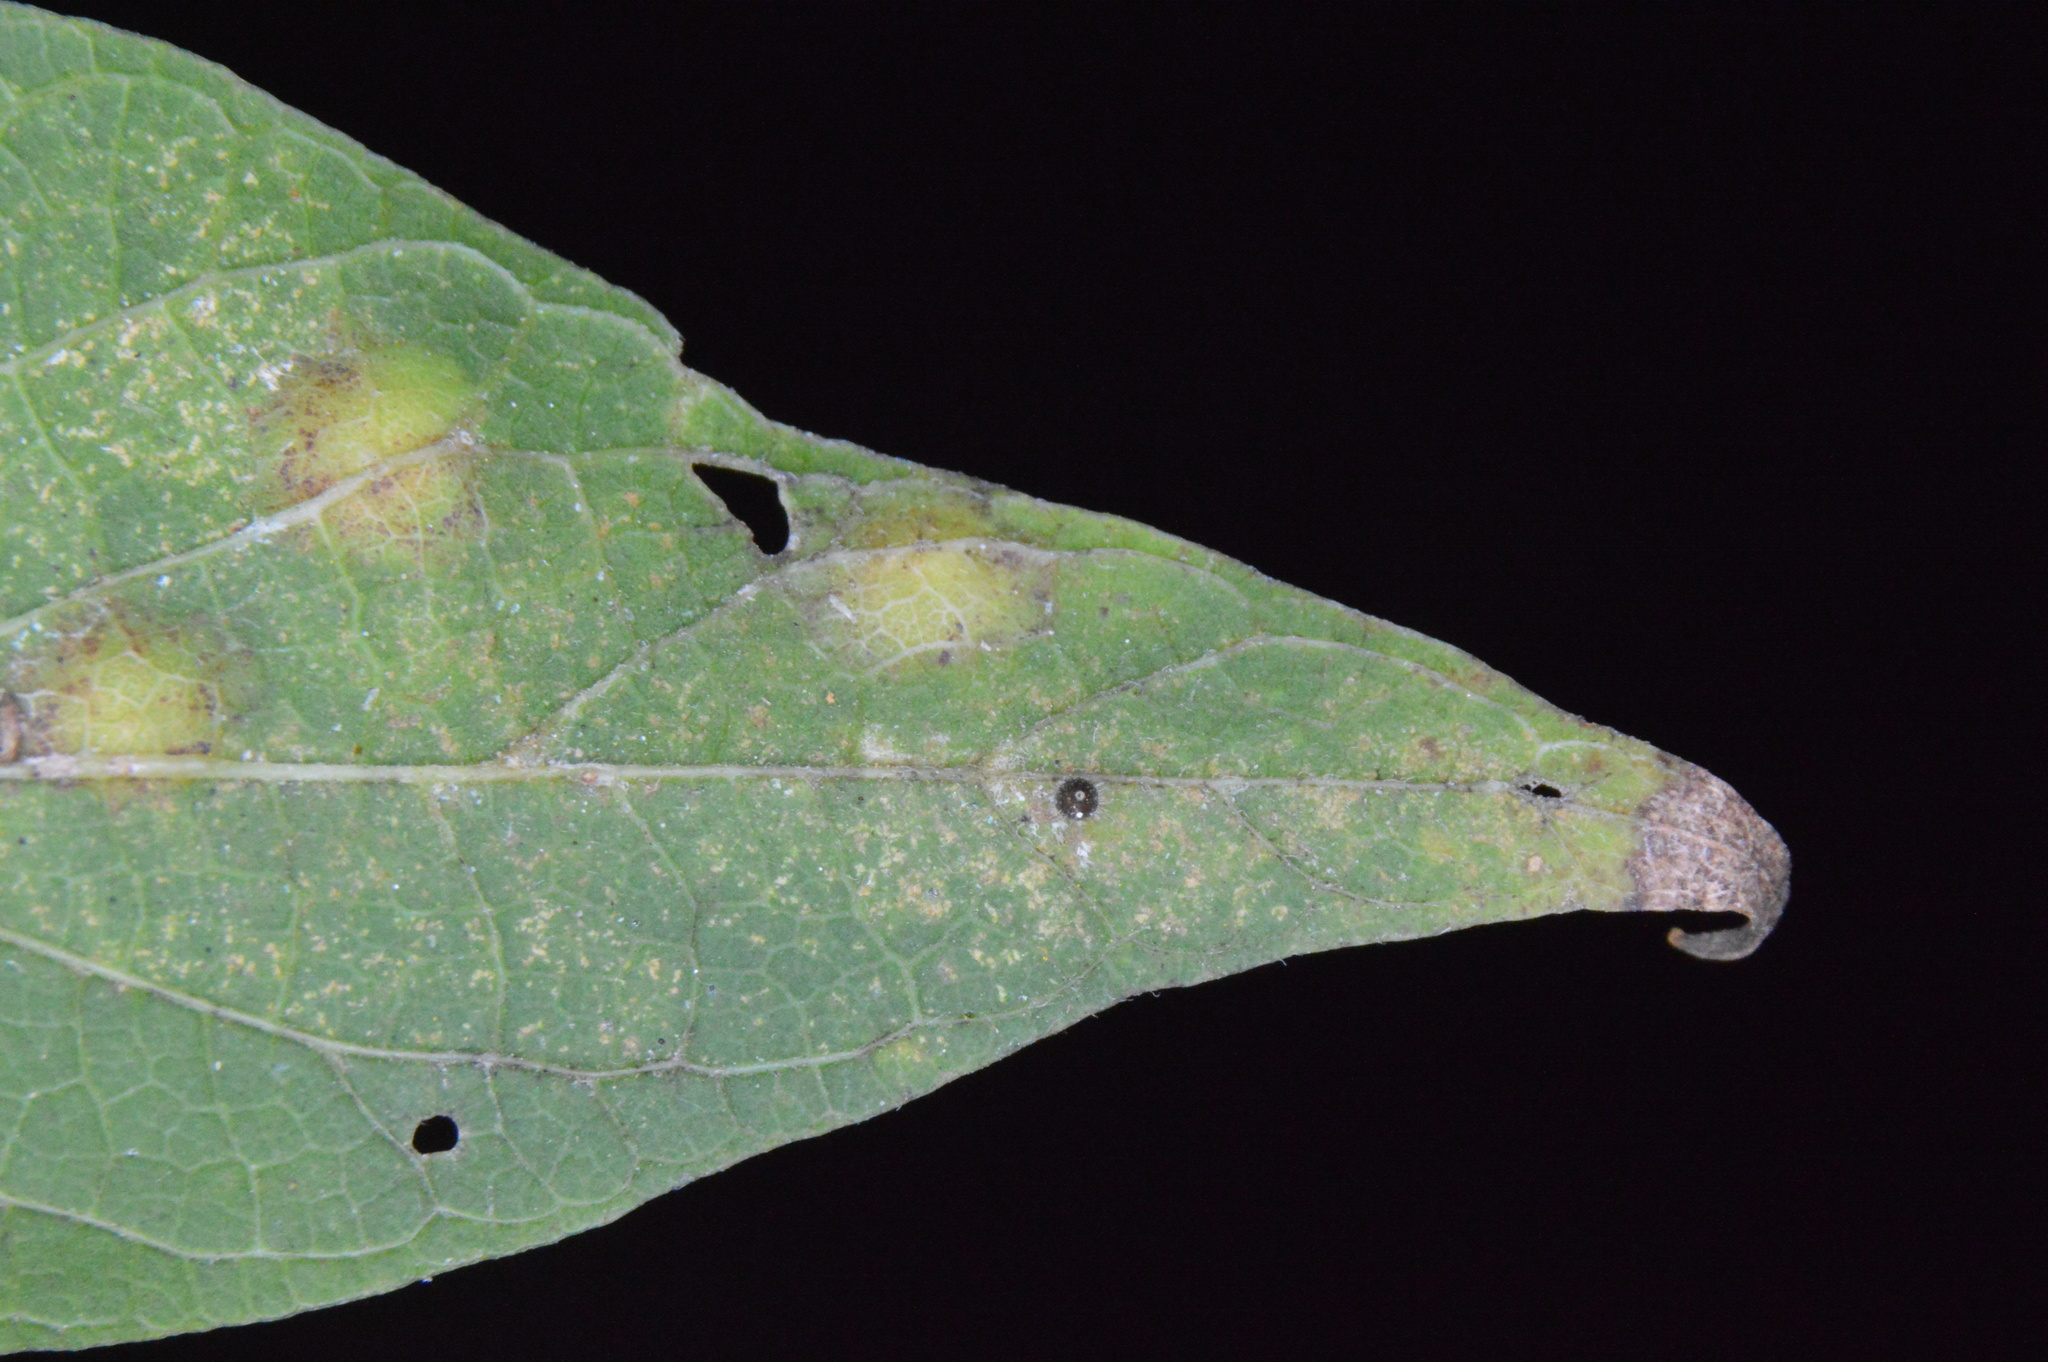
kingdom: Animalia
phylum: Arthropoda
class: Insecta
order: Diptera
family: Cecidomyiidae
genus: Celticecis
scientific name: Celticecis cupiformis
